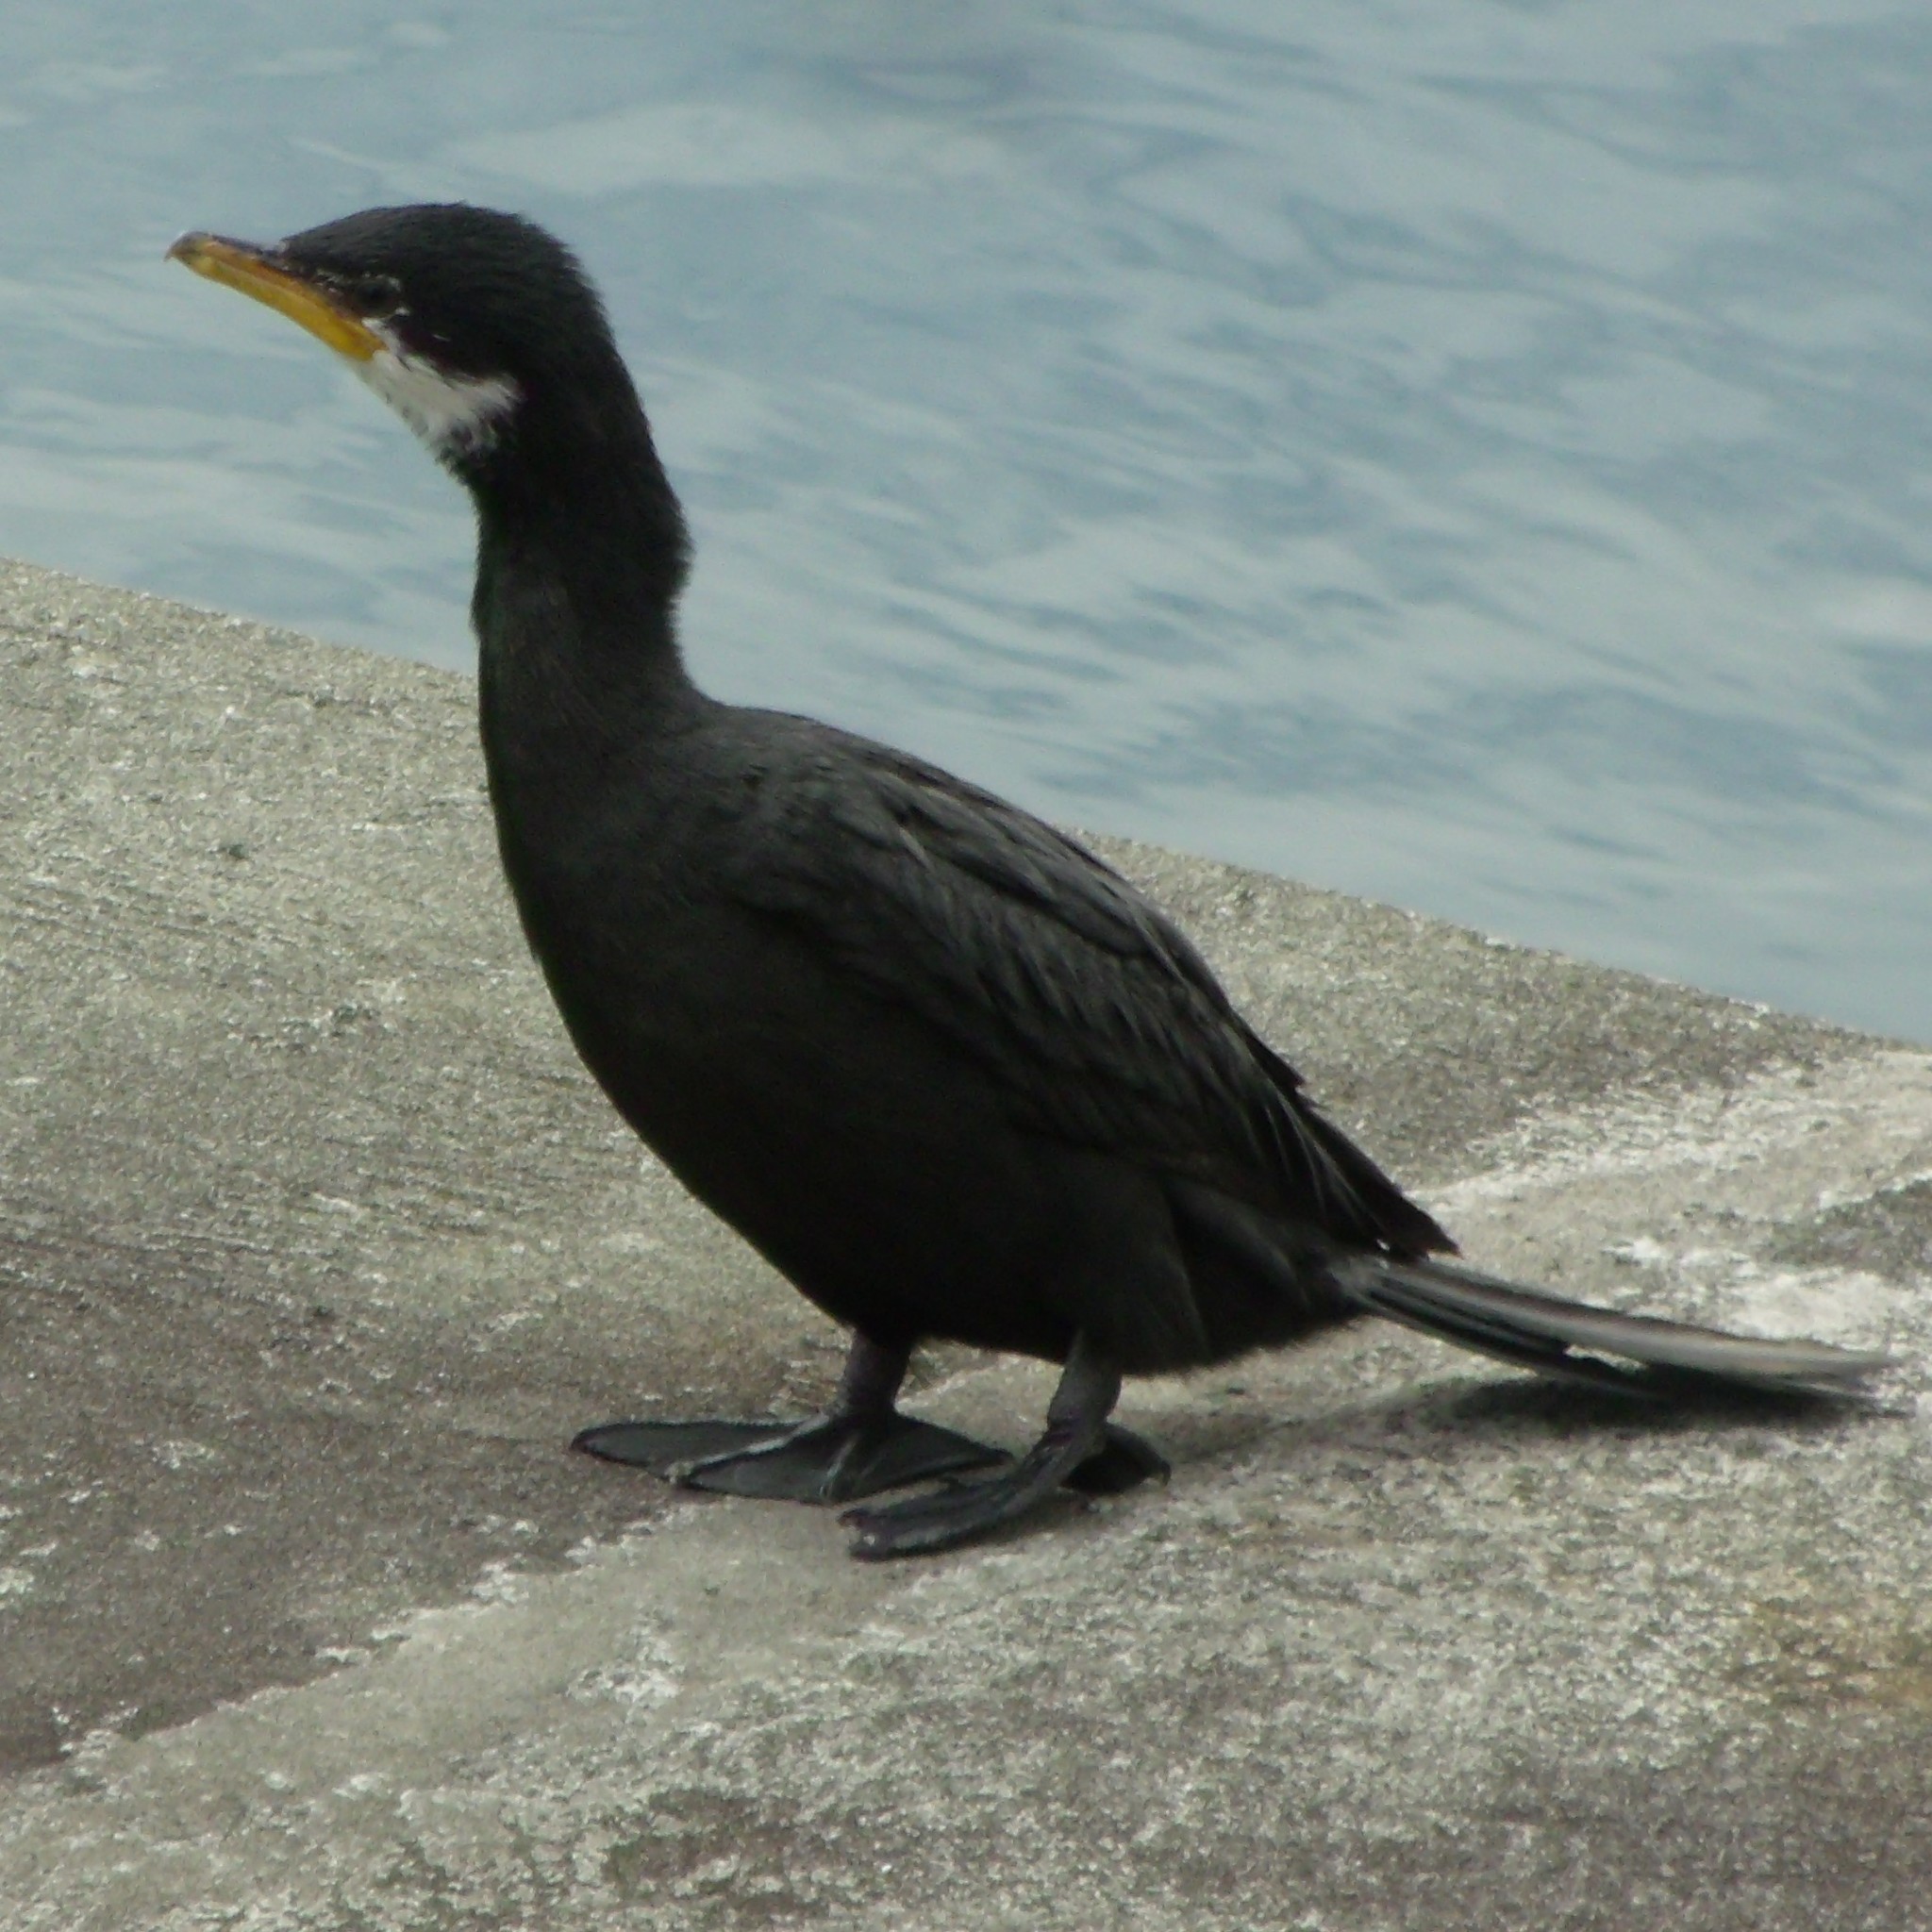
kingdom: Animalia
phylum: Chordata
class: Aves
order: Suliformes
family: Phalacrocoracidae
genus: Microcarbo
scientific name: Microcarbo melanoleucos
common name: Little pied cormorant
